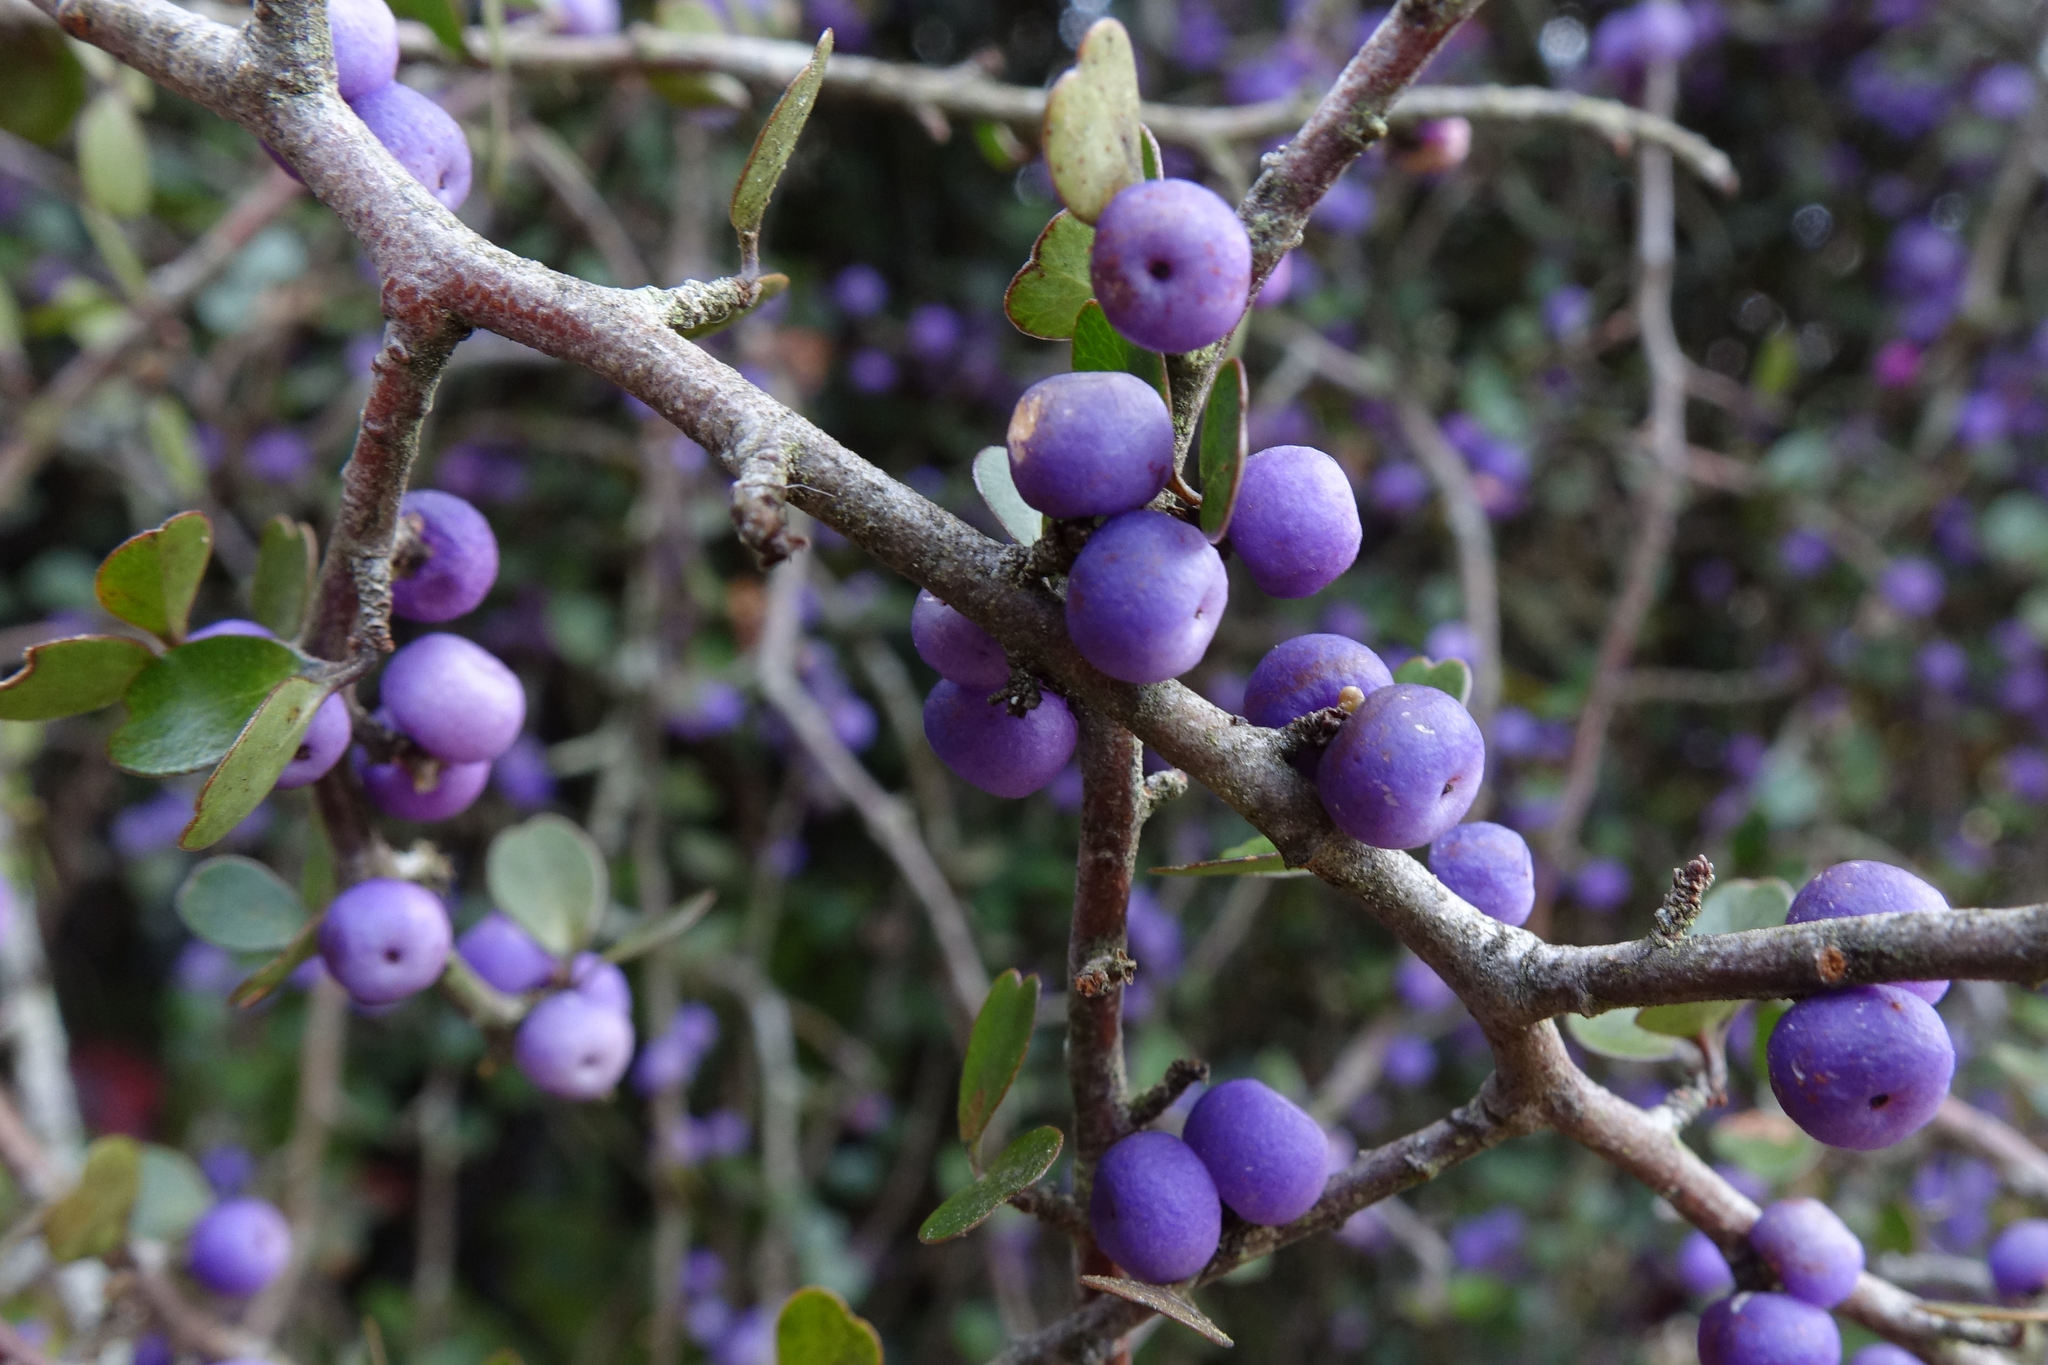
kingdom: Plantae
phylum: Tracheophyta
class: Magnoliopsida
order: Ericales
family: Primulaceae
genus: Myrsine
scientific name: Myrsine divaricata
